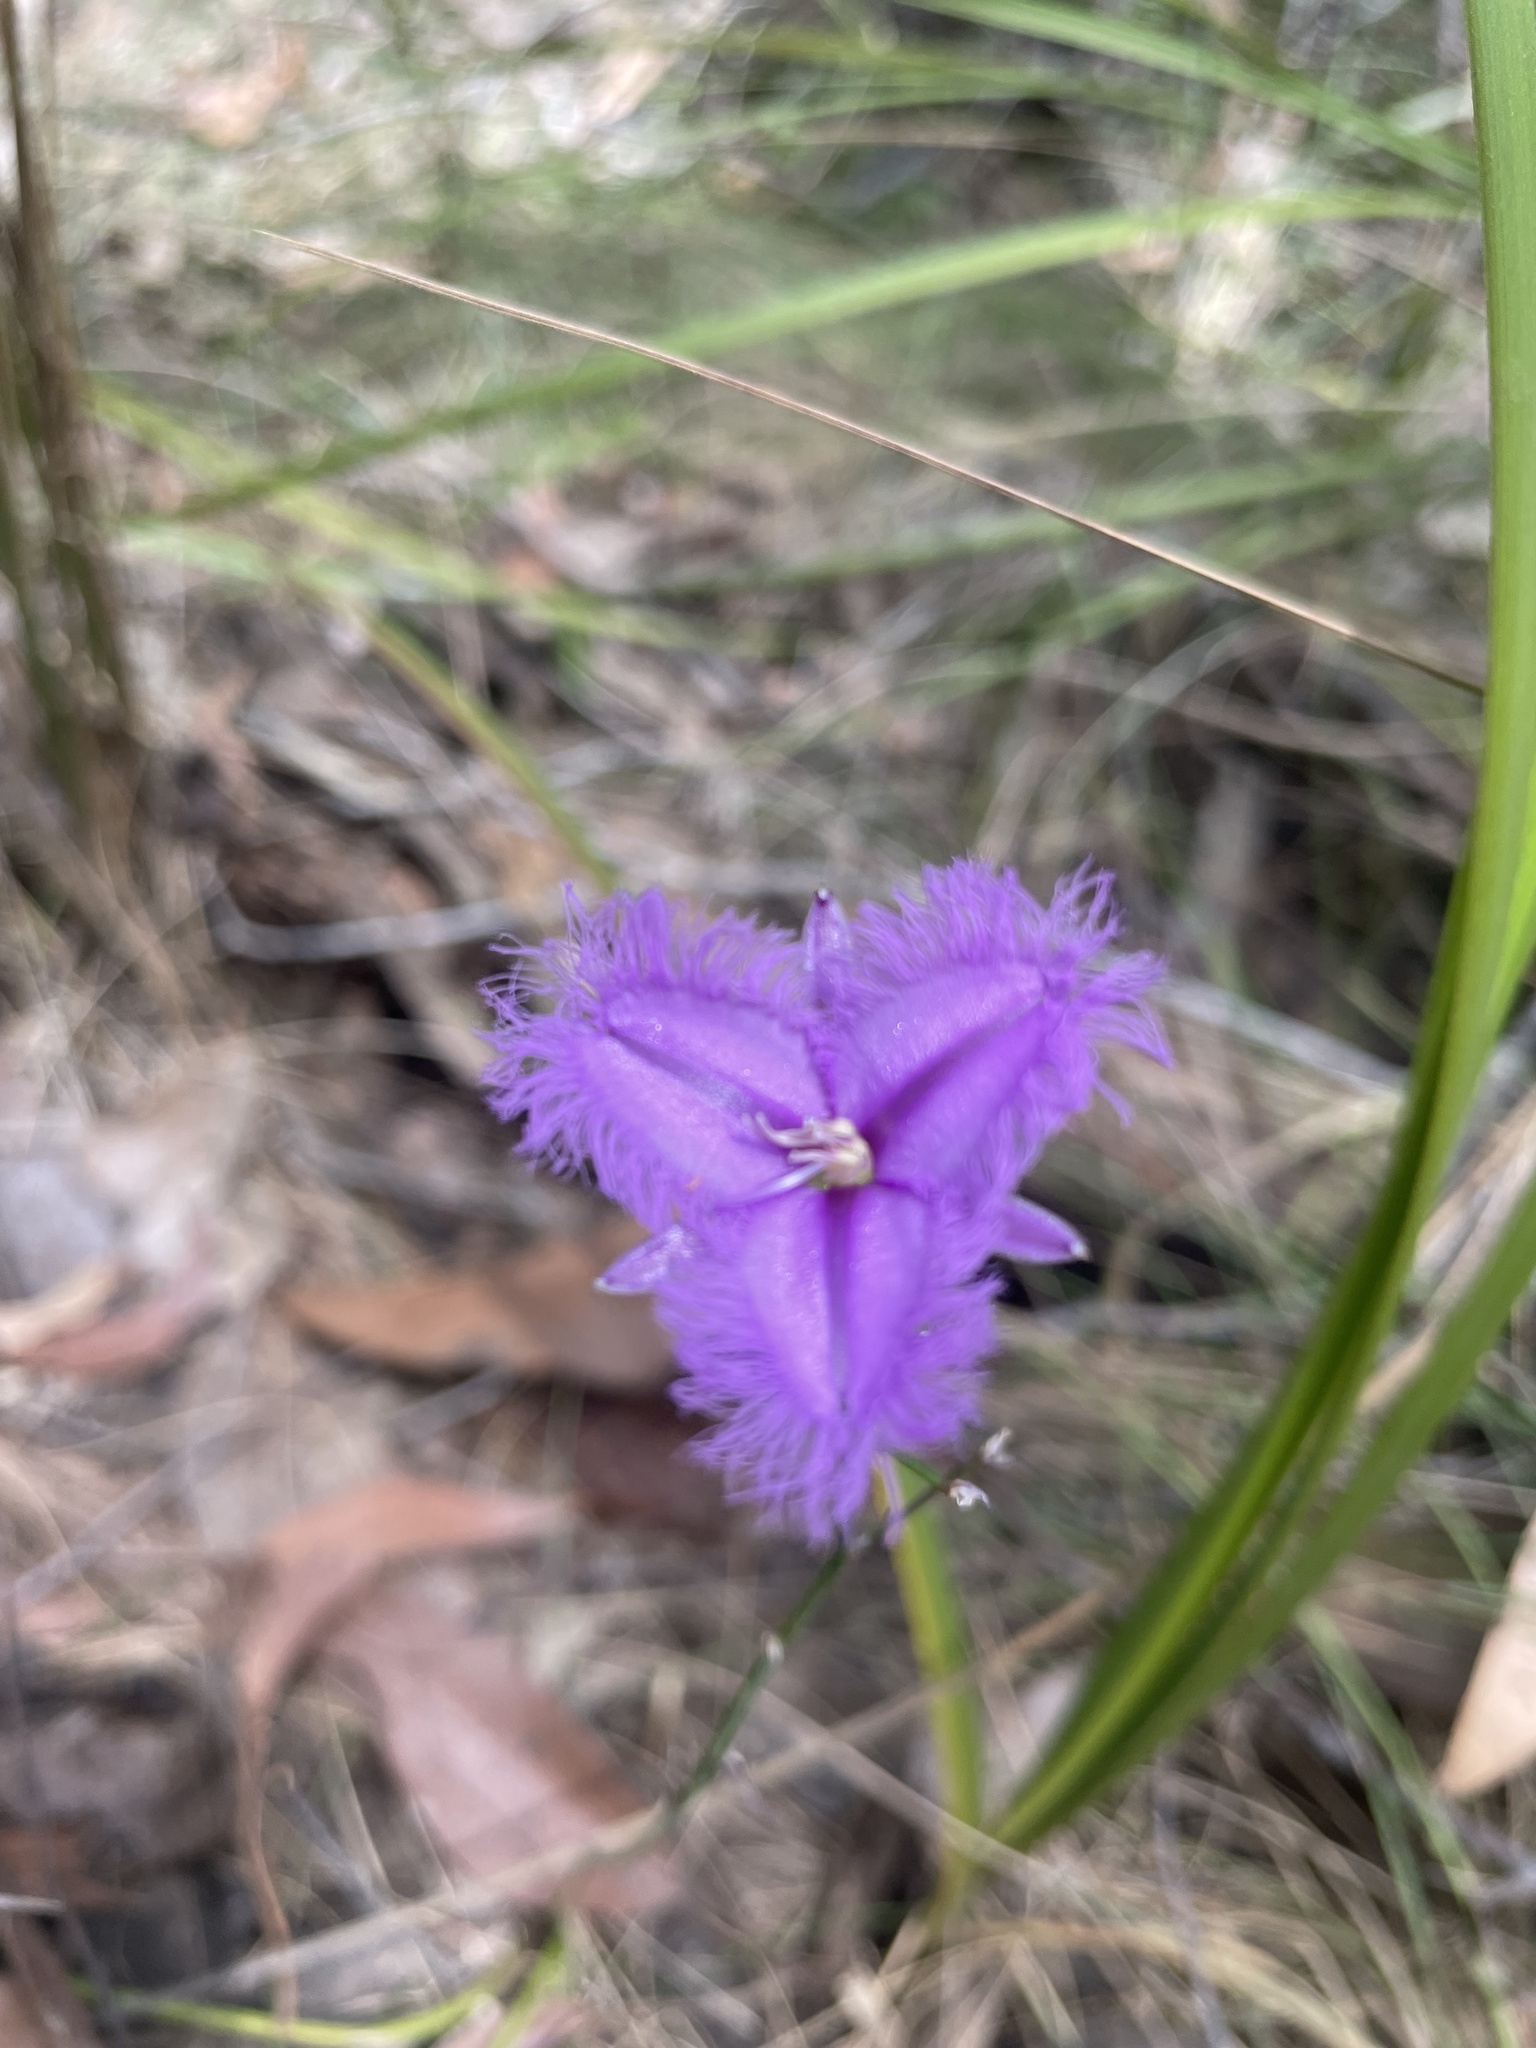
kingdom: Plantae
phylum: Tracheophyta
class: Liliopsida
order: Asparagales
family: Asparagaceae
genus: Thysanotus
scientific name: Thysanotus tuberosus
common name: Common fringed-lily
